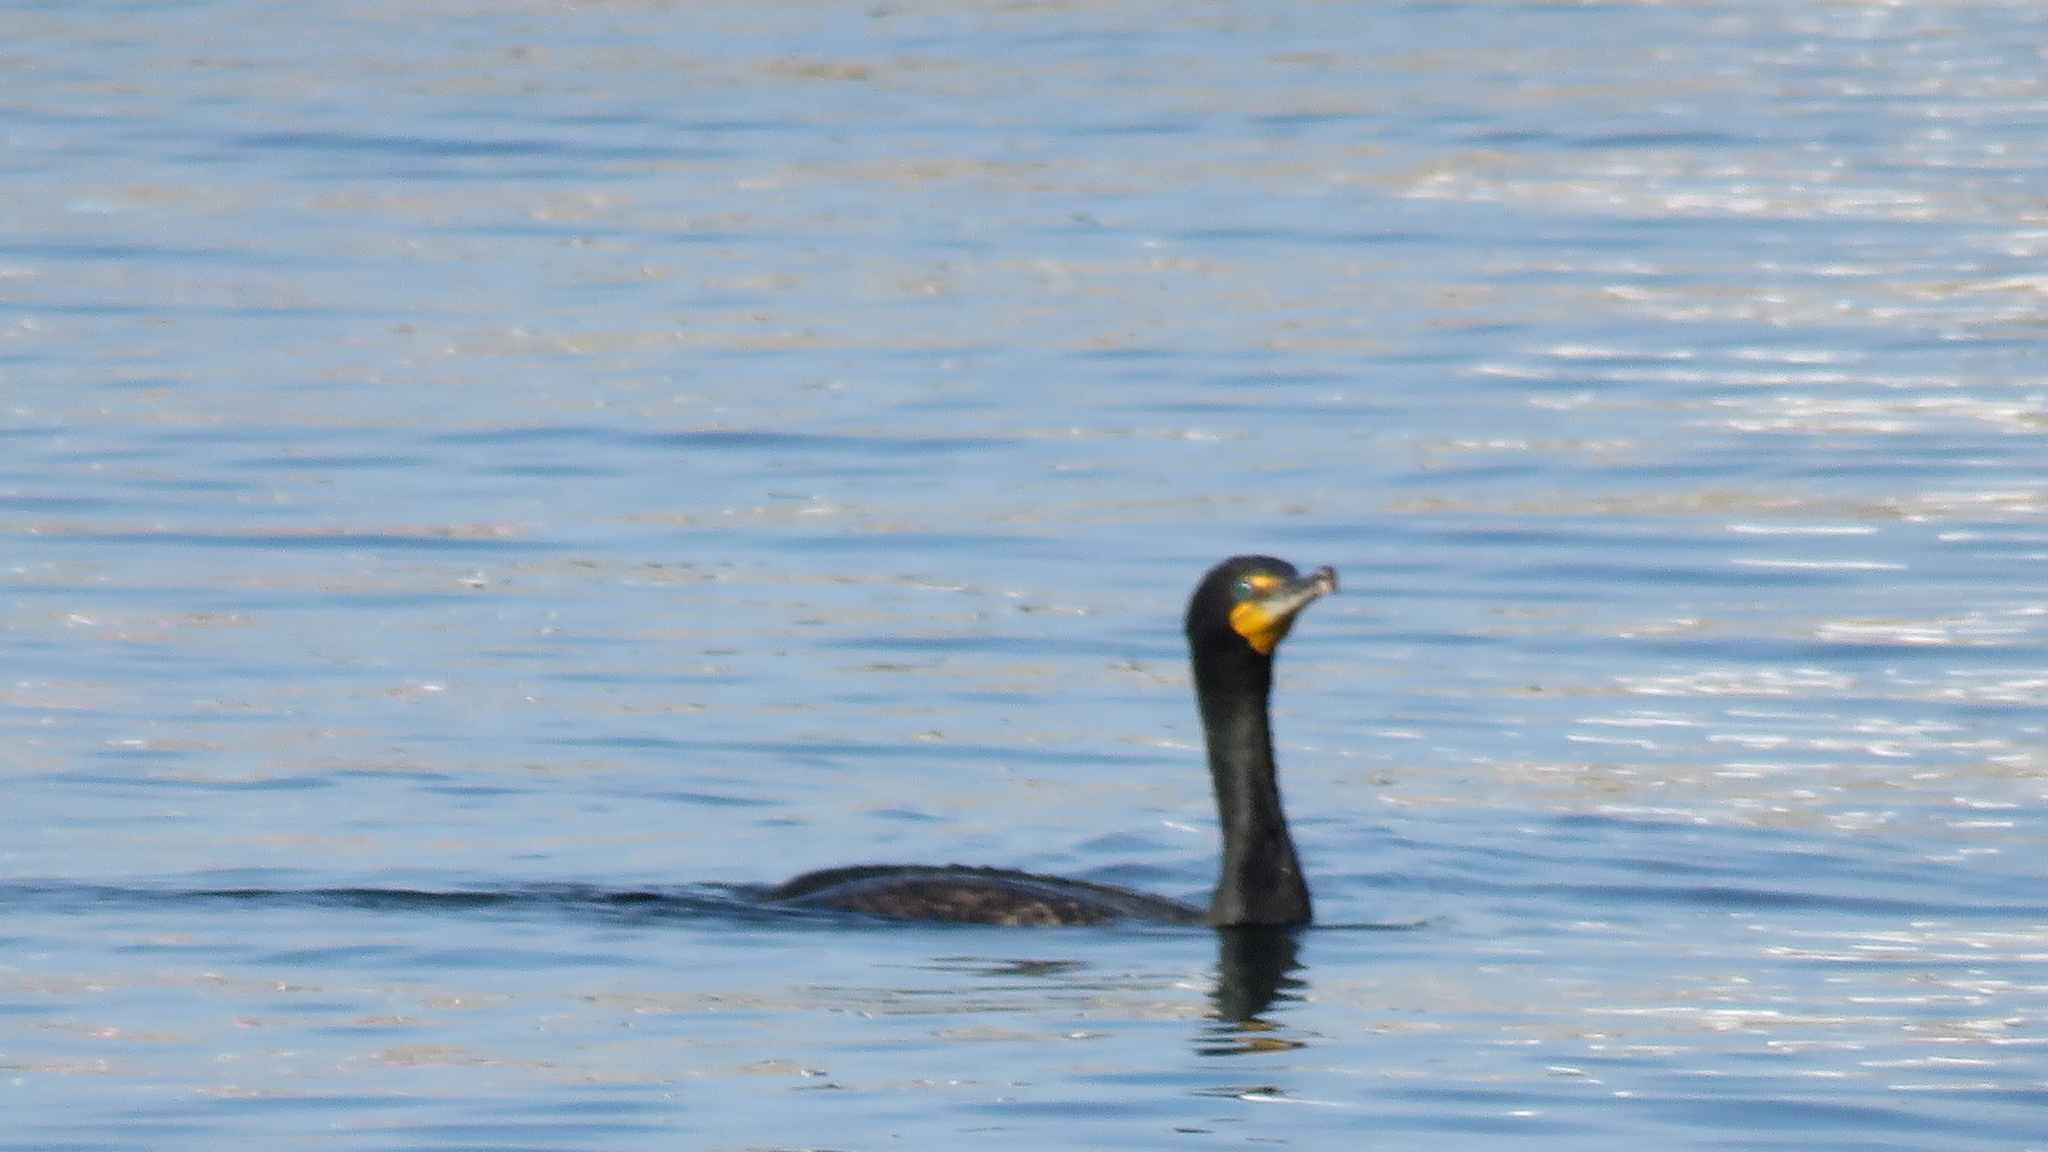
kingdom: Animalia
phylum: Chordata
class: Aves
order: Suliformes
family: Phalacrocoracidae
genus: Phalacrocorax
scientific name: Phalacrocorax auritus
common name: Double-crested cormorant
